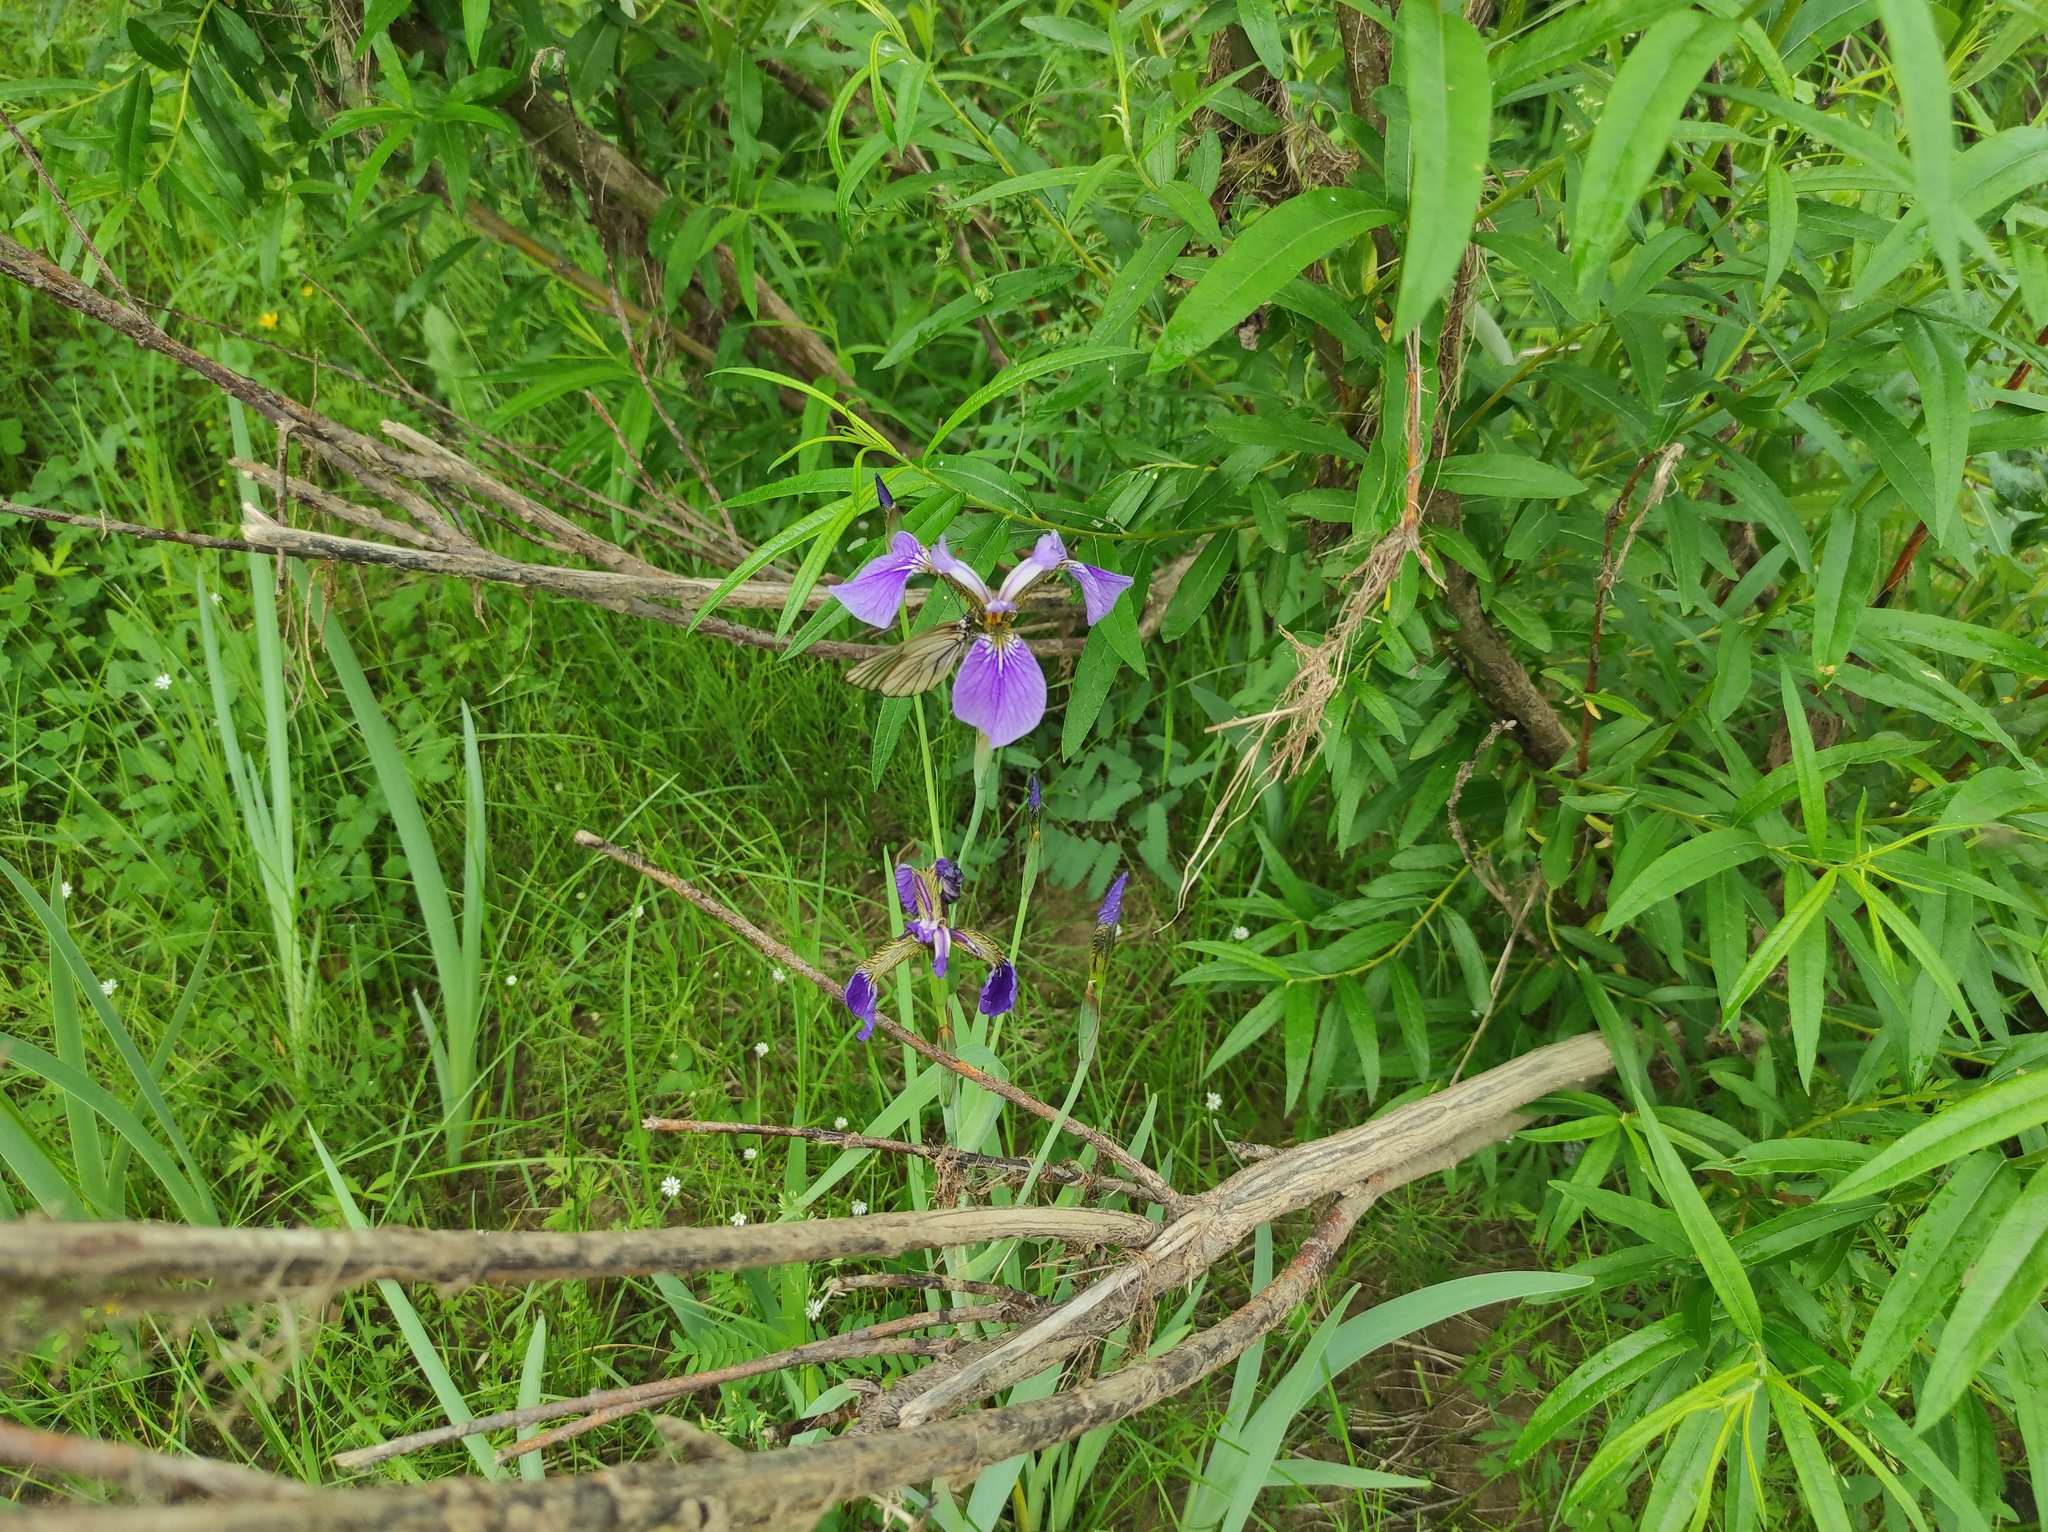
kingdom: Plantae
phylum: Tracheophyta
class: Liliopsida
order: Asparagales
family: Iridaceae
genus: Iris
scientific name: Iris setosa
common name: Arctic blue flag
